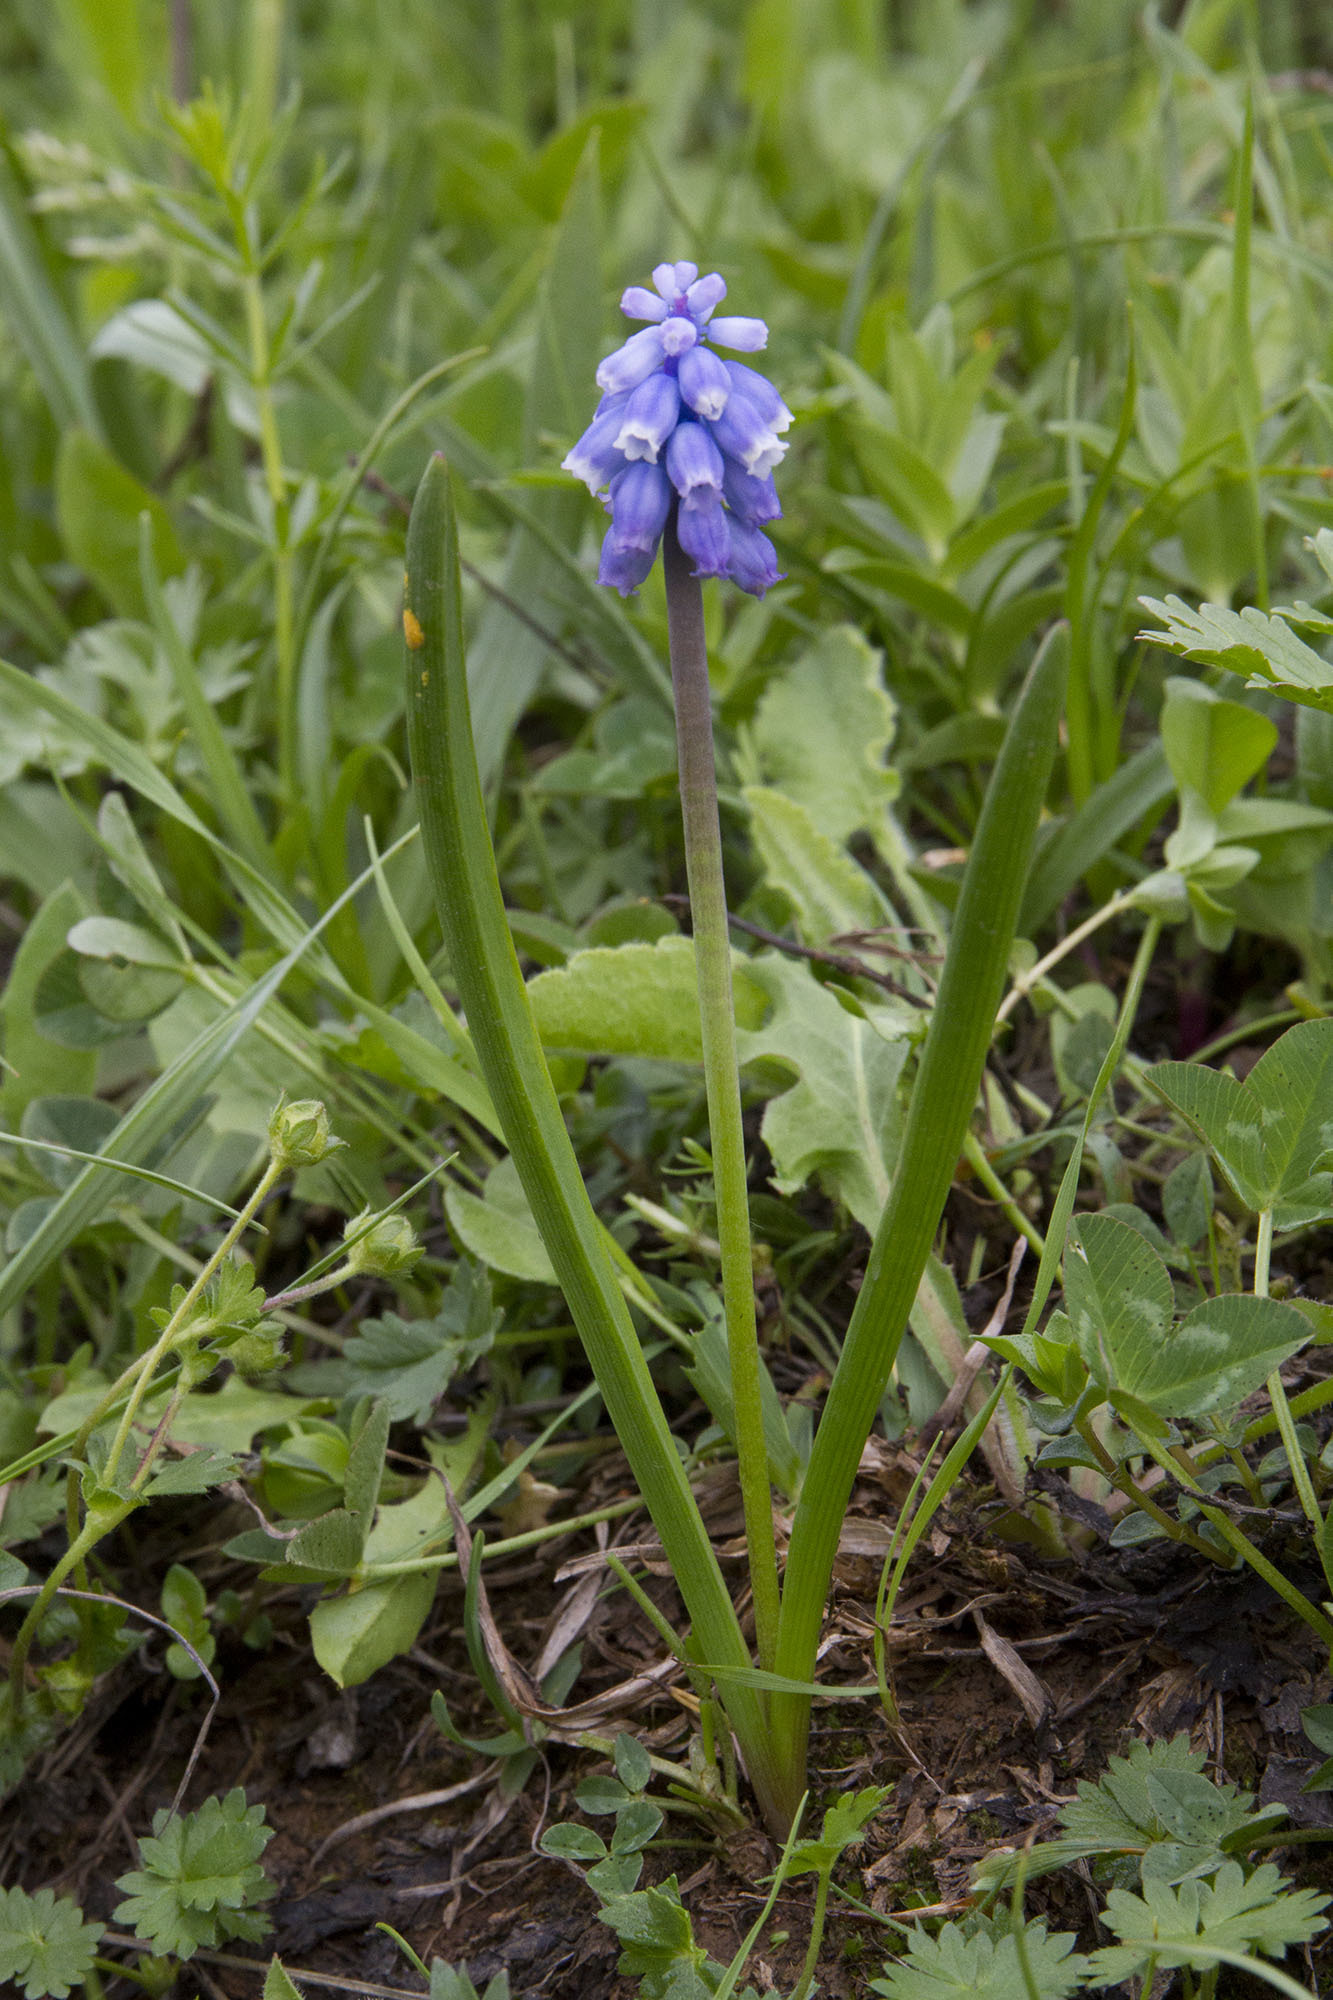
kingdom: Plantae
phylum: Tracheophyta
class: Liliopsida
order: Asparagales
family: Asparagaceae
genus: Muscari
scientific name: Muscari coeruleum
